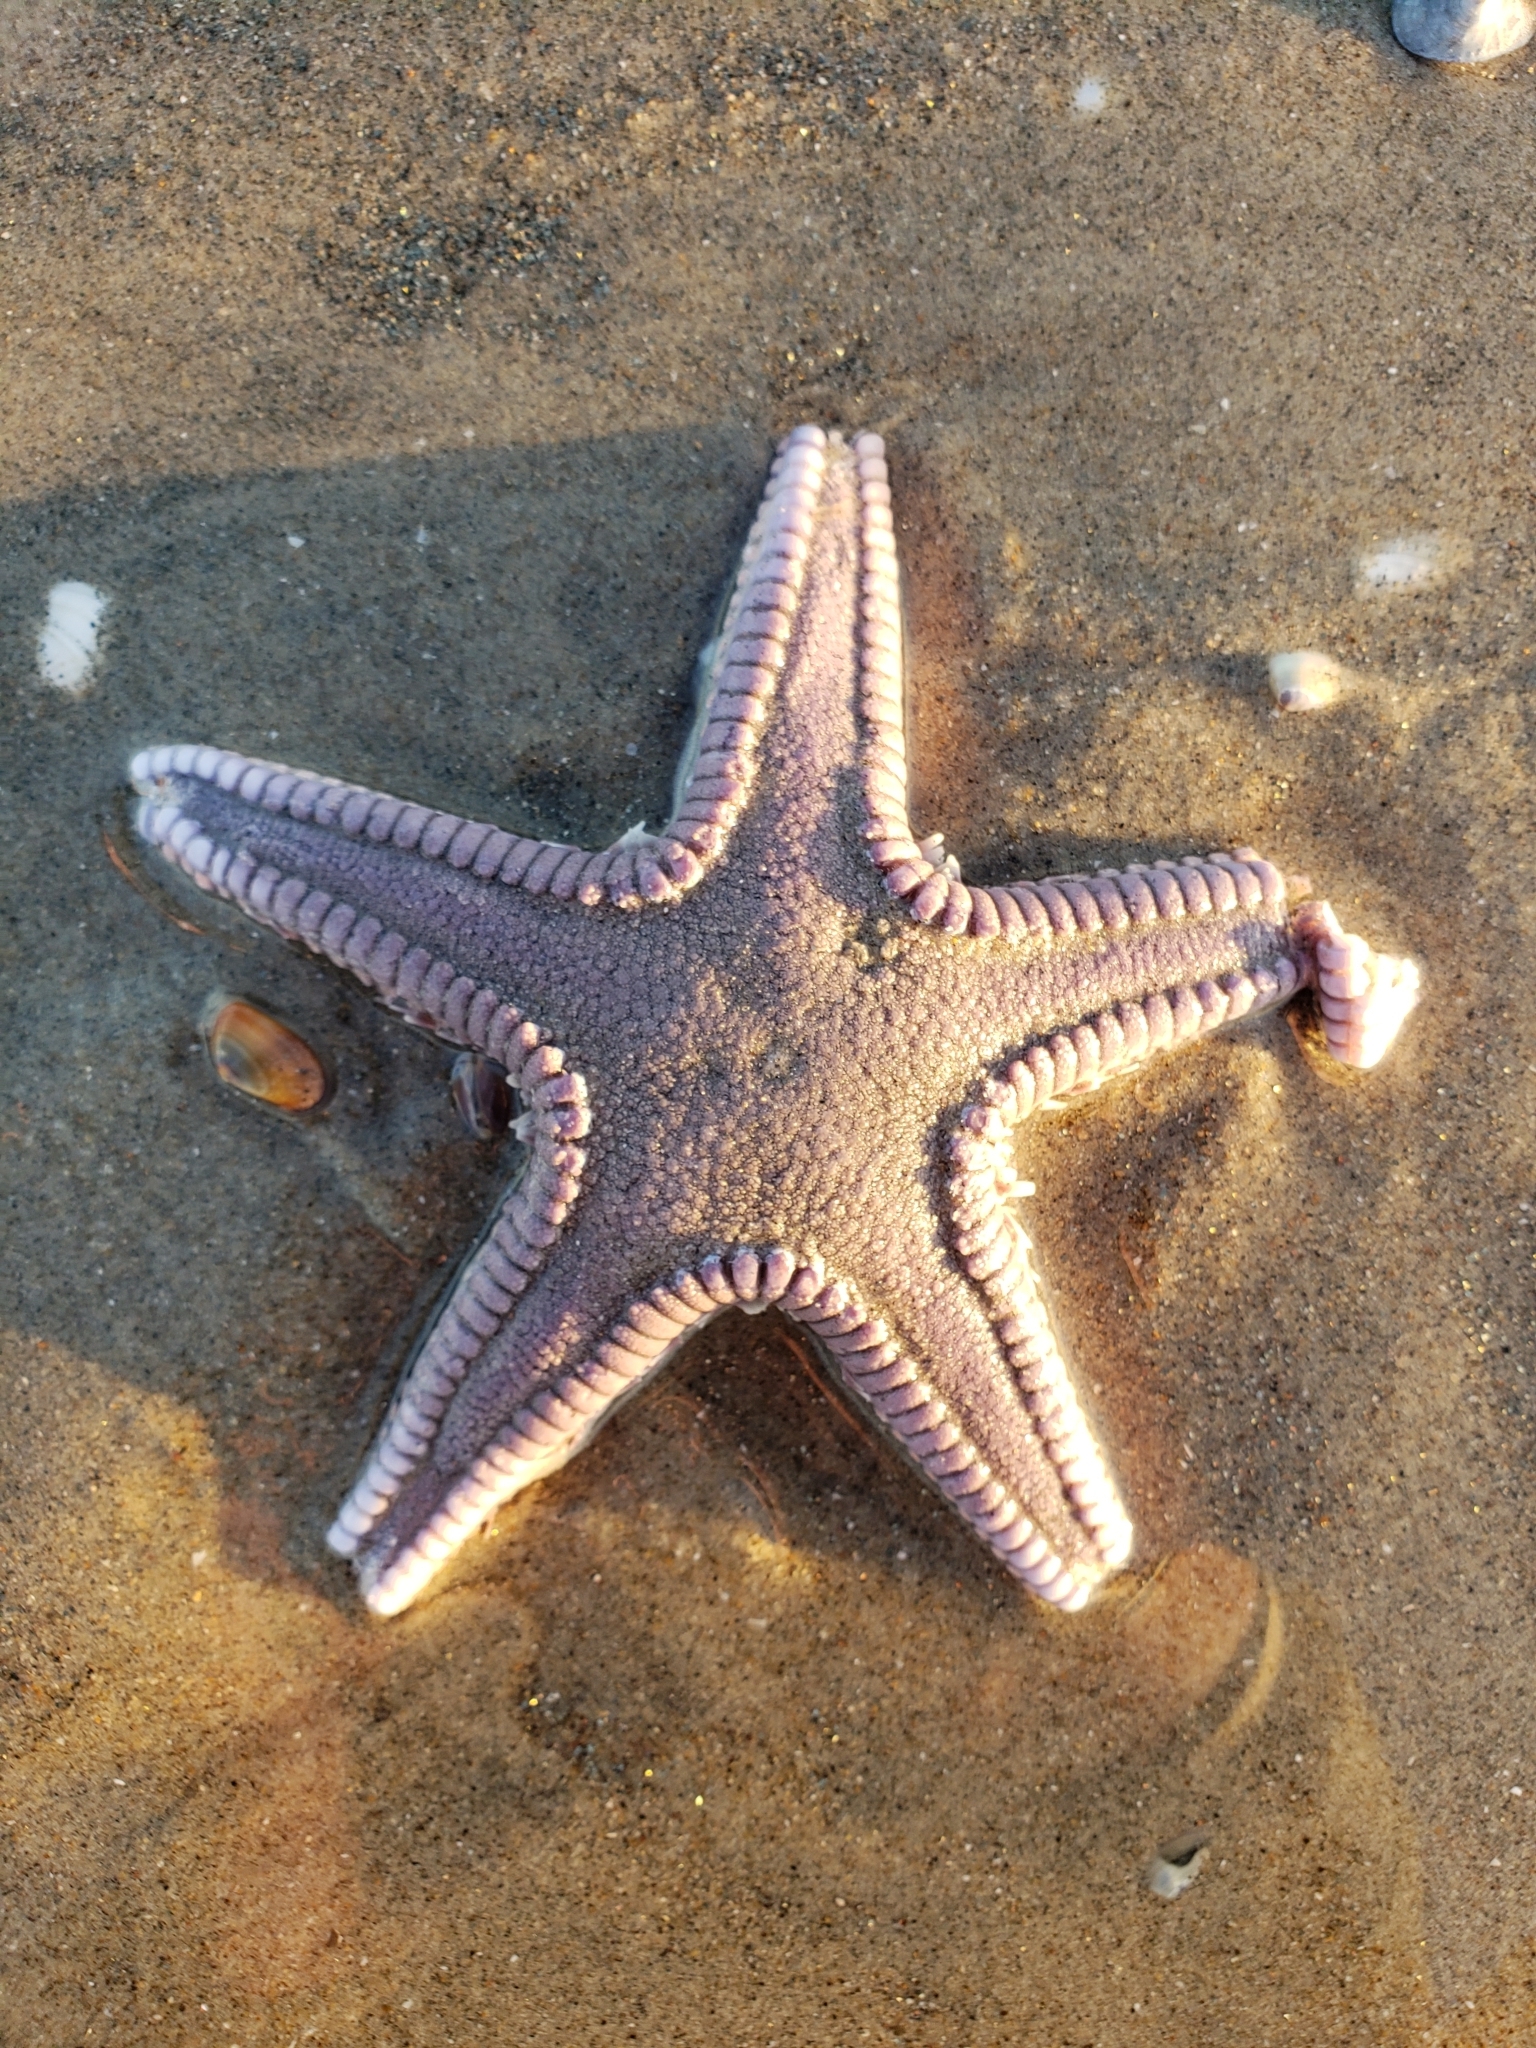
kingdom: Animalia
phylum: Echinodermata
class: Asteroidea
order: Paxillosida
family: Astropectinidae
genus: Astropecten
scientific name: Astropecten verrilli de
